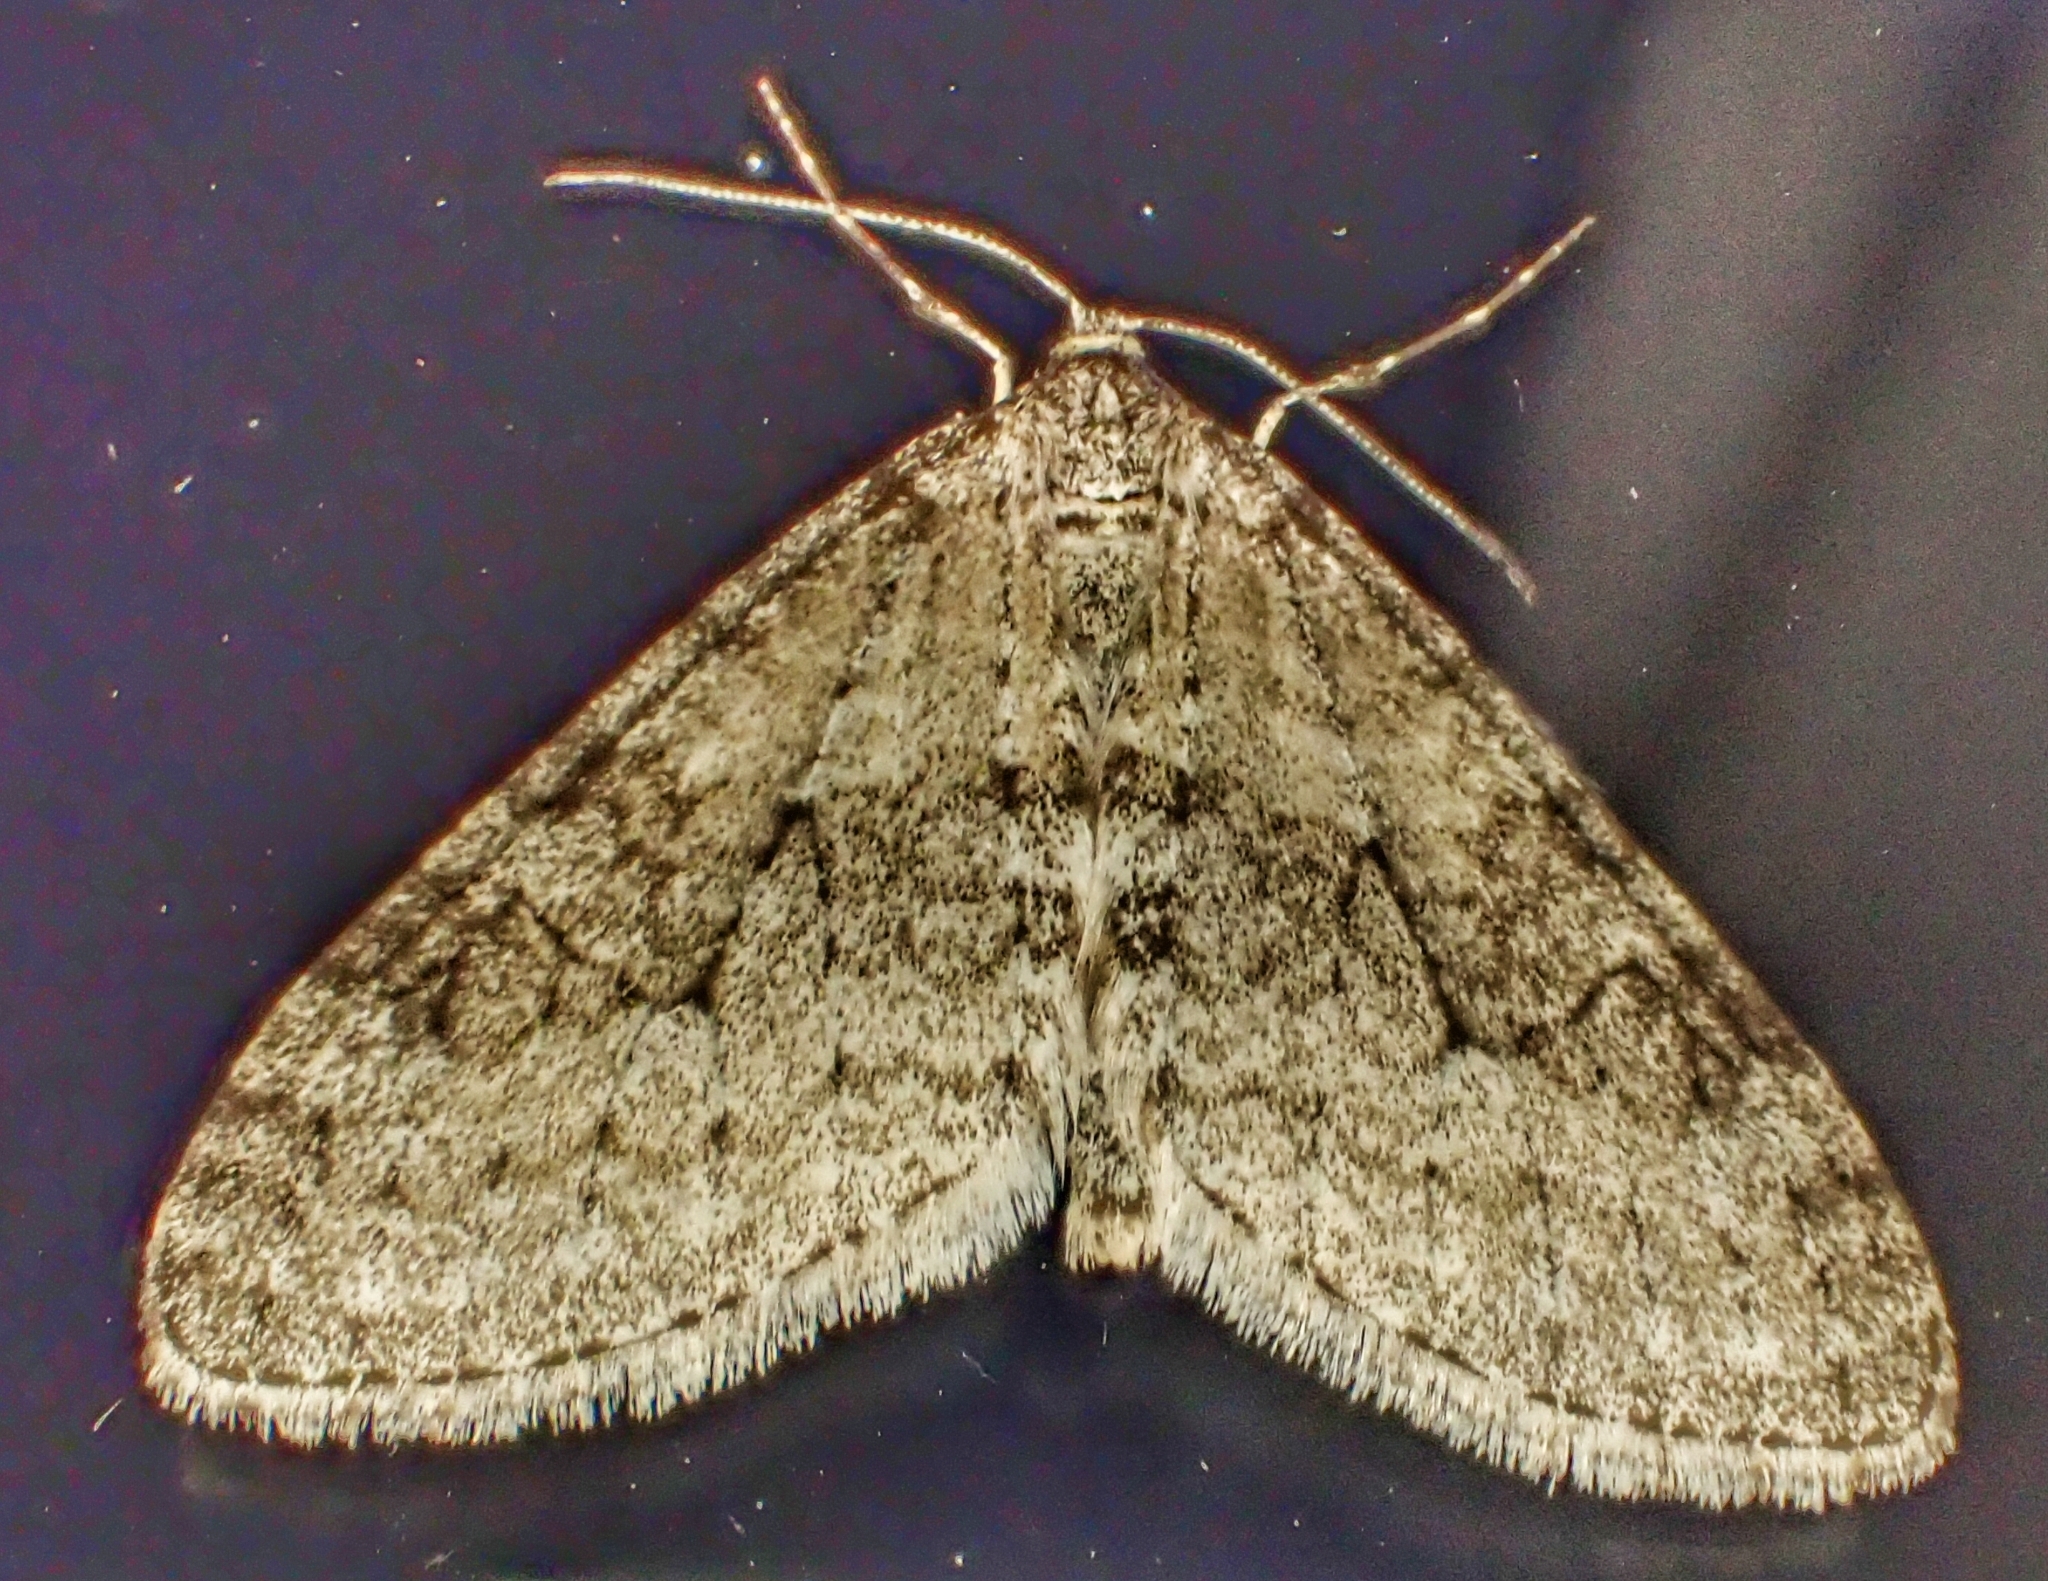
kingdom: Animalia
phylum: Arthropoda
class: Insecta
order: Lepidoptera
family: Geometridae
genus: Trichopteryx
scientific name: Trichopteryx carpinata
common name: Early tooth-striped
